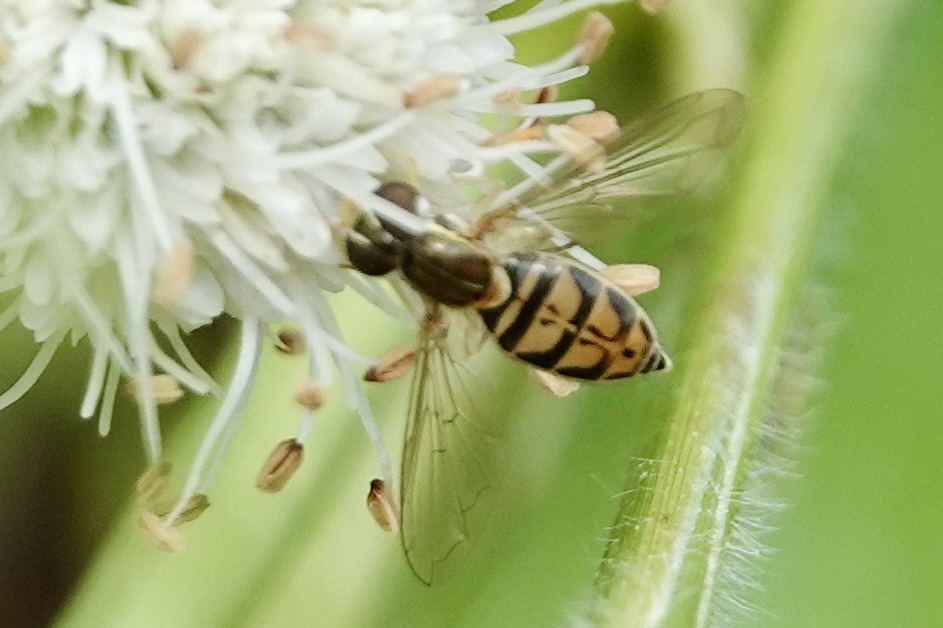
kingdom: Animalia
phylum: Arthropoda
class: Insecta
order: Diptera
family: Syrphidae
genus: Toxomerus
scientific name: Toxomerus marginatus
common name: Syrphid fly
